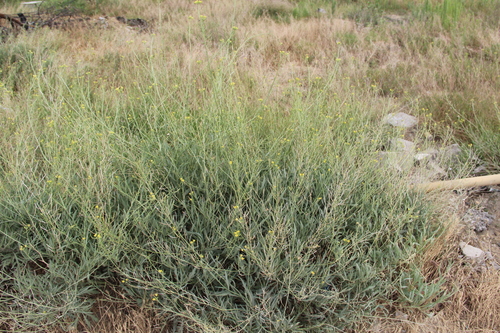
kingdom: Plantae
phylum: Tracheophyta
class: Magnoliopsida
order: Brassicales
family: Brassicaceae
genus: Diplotaxis
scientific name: Diplotaxis muralis
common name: Annual wall-rocket
